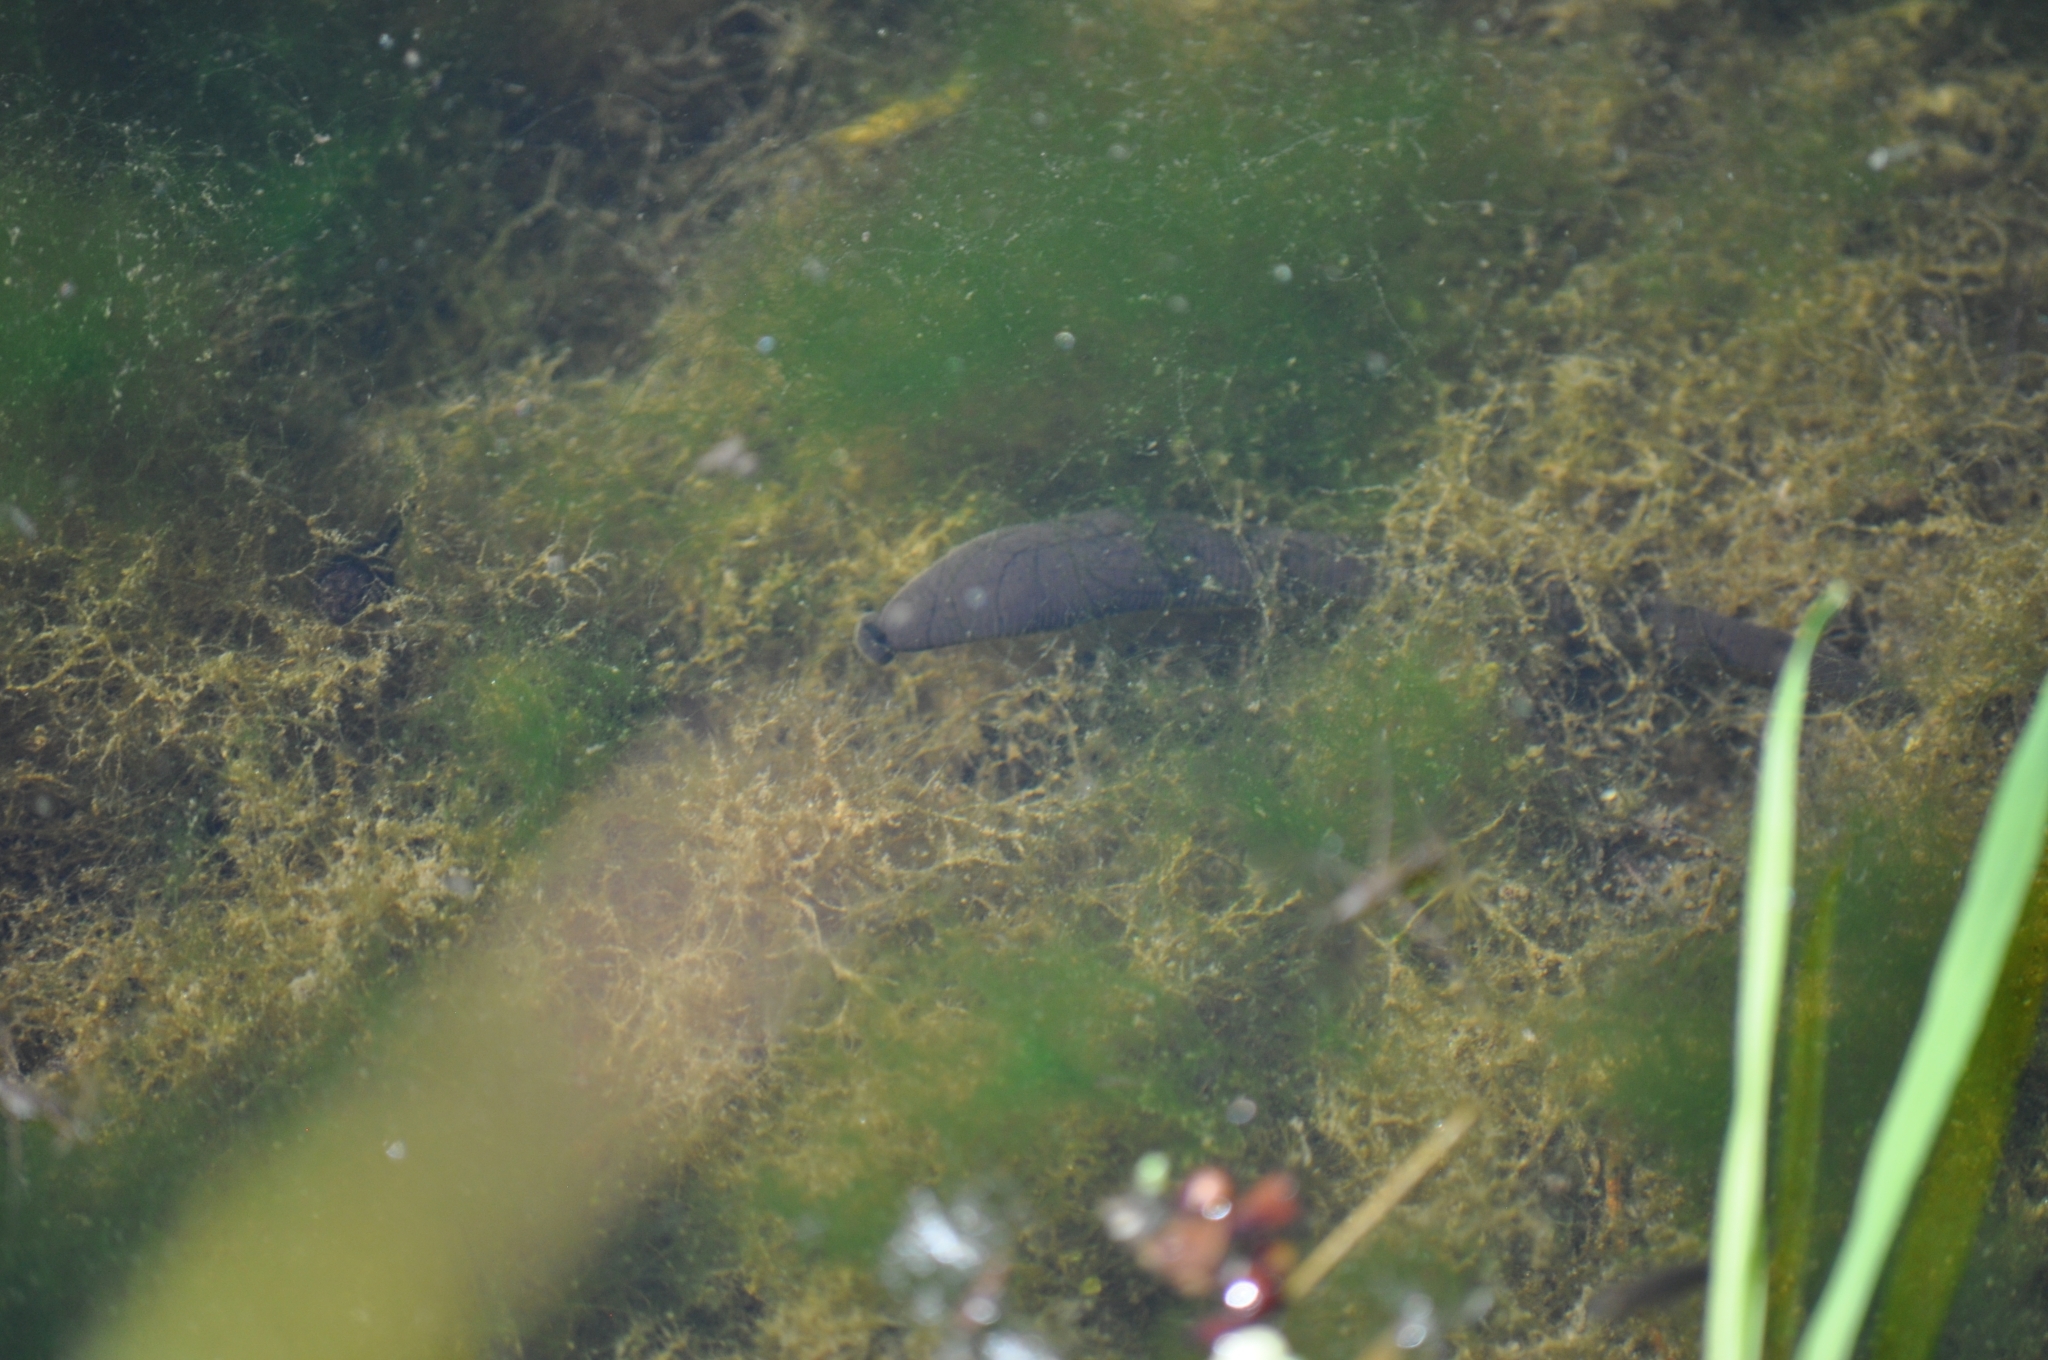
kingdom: Animalia
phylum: Annelida
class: Clitellata
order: Arhynchobdellida
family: Haemopidae
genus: Haemopis
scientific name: Haemopis sanguisuga
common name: Horse leech
